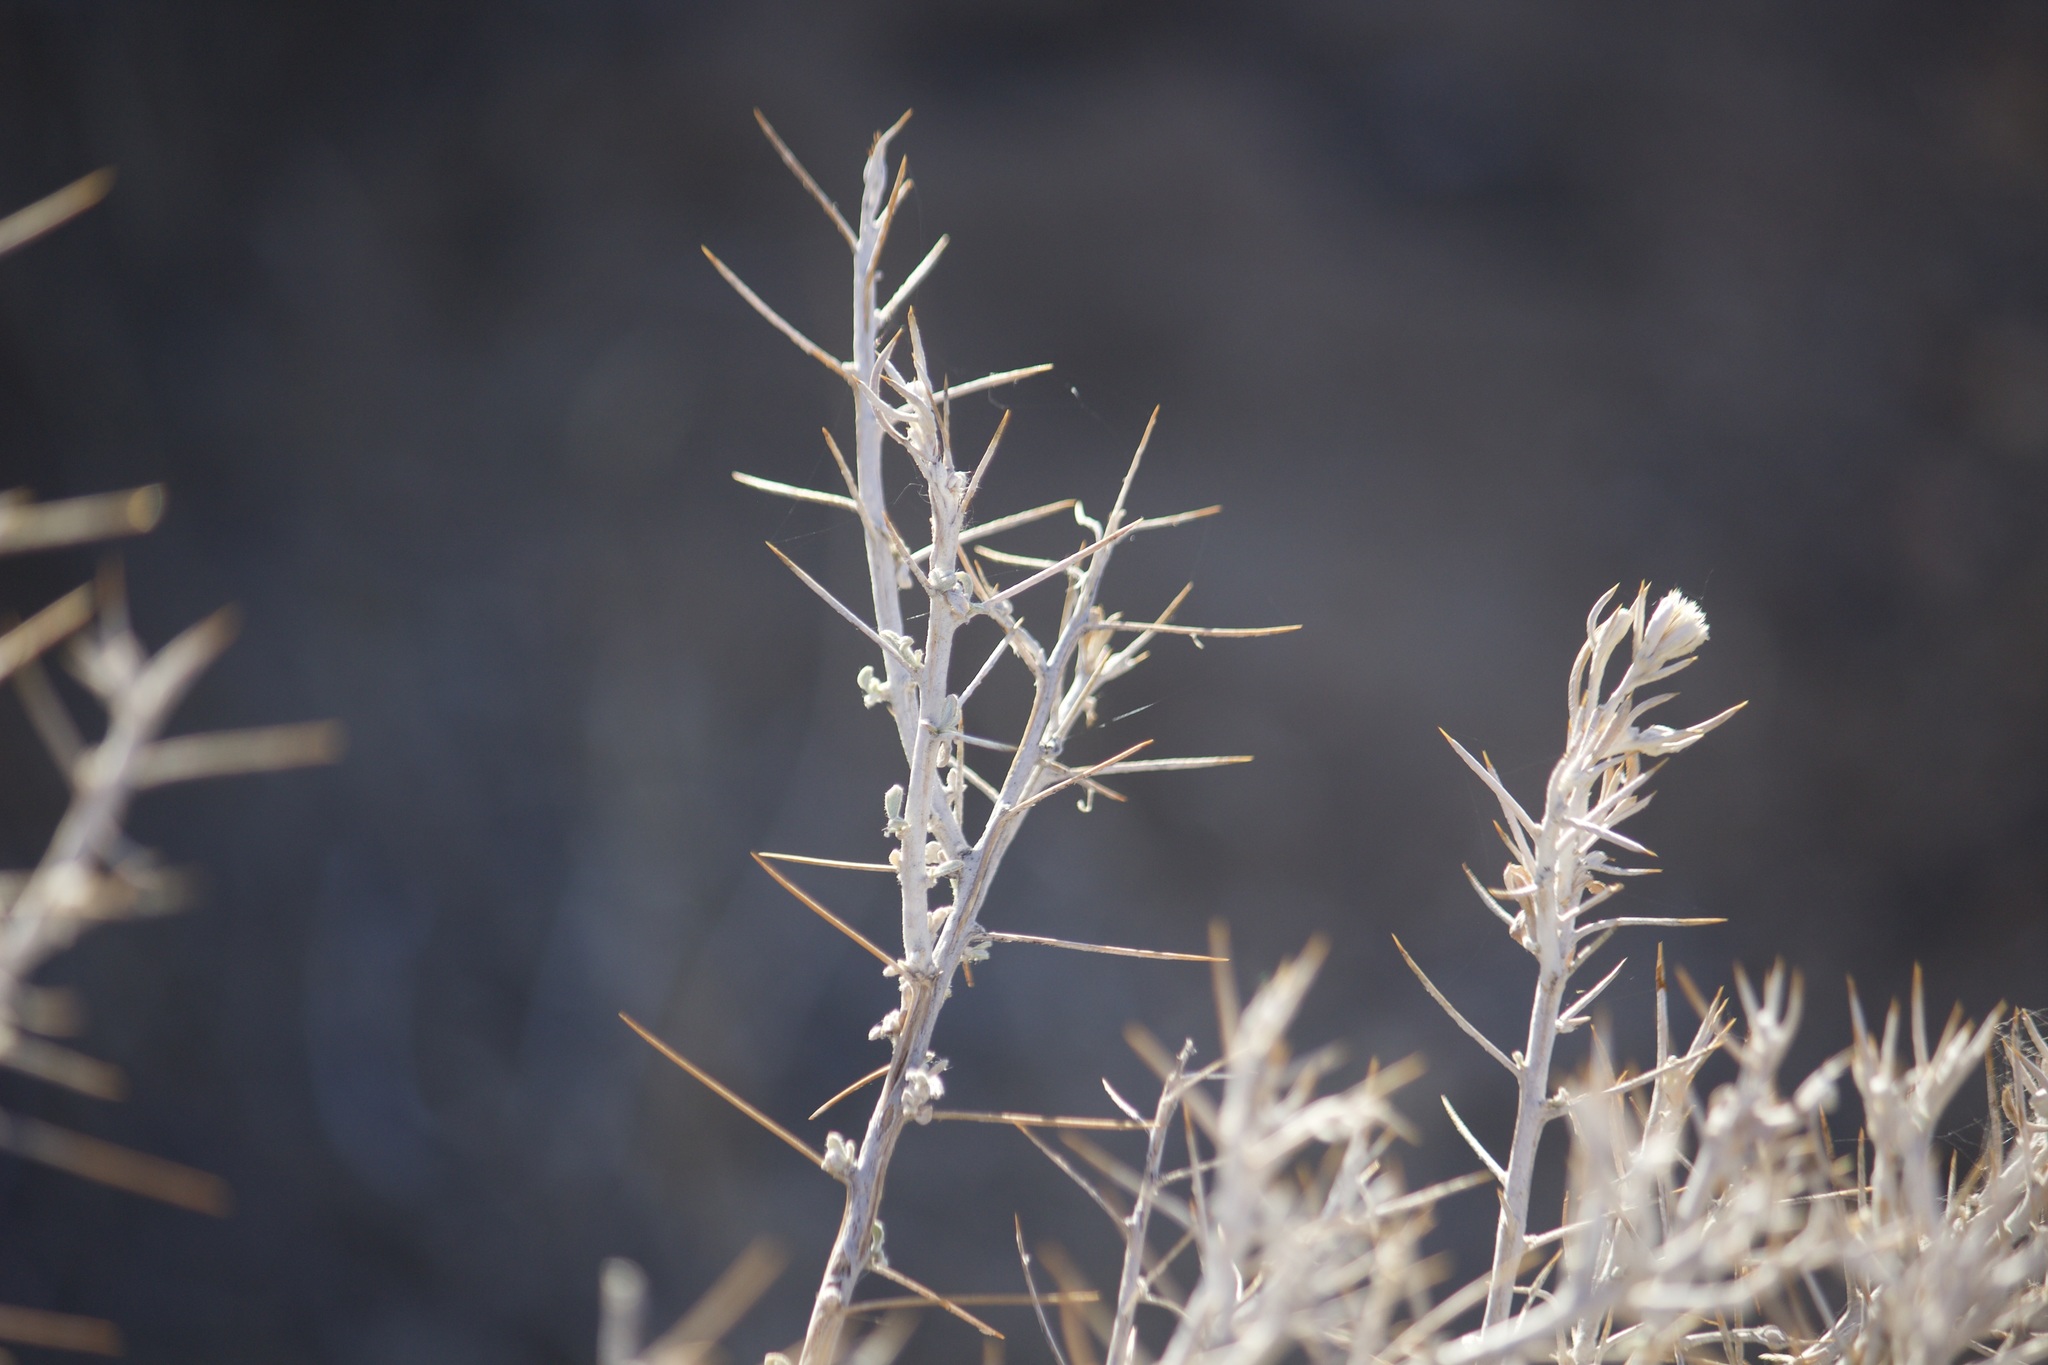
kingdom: Plantae
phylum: Tracheophyta
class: Magnoliopsida
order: Asterales
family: Asteraceae
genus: Tetradymia
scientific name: Tetradymia stenolepis
